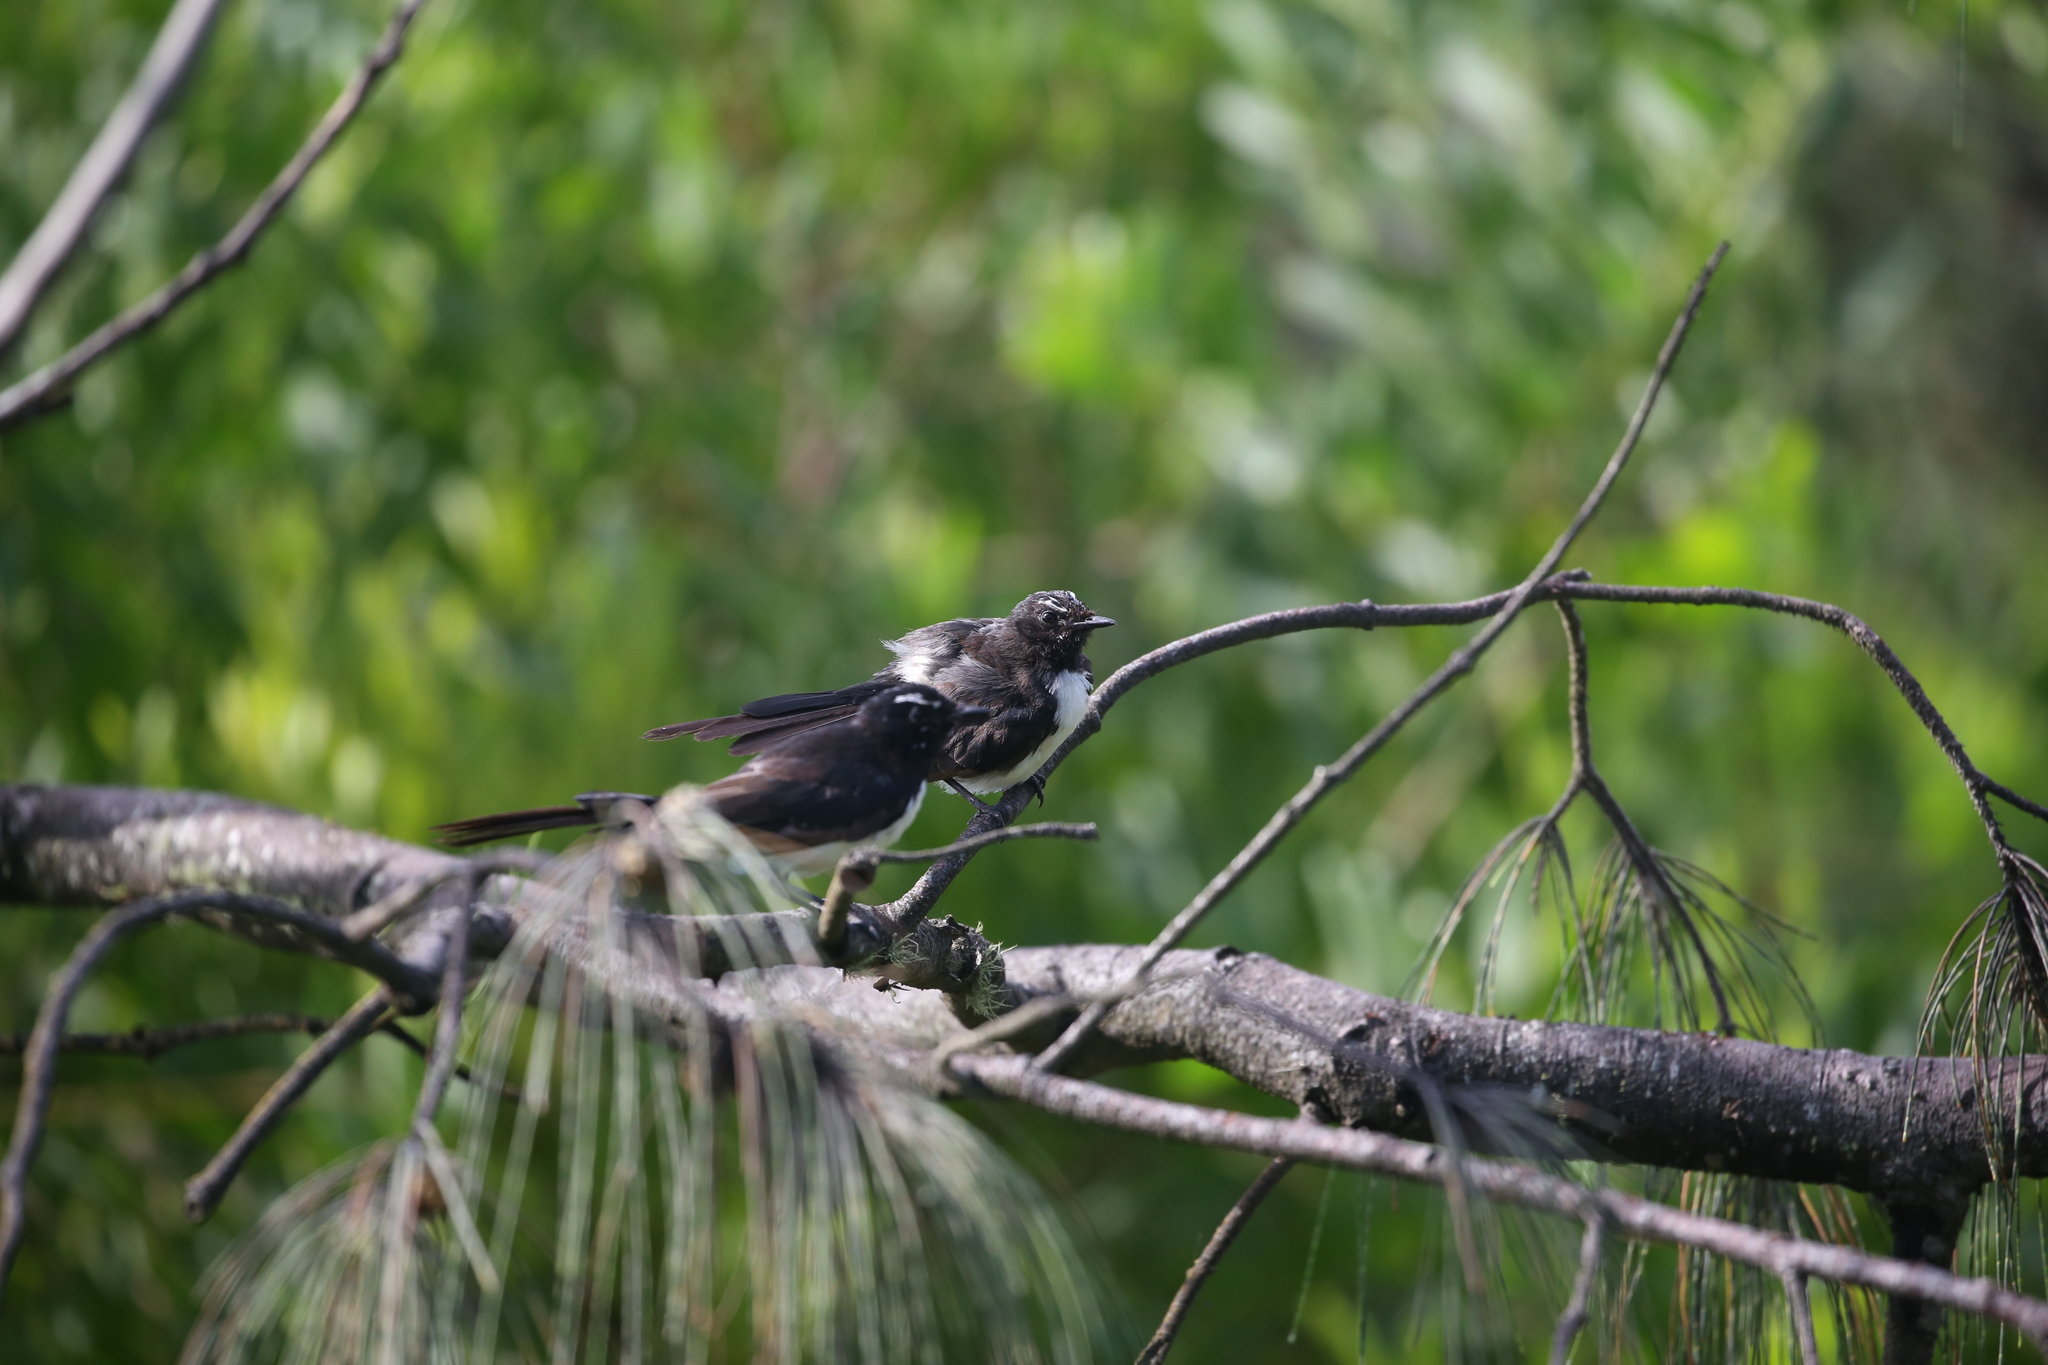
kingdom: Animalia
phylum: Chordata
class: Aves
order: Passeriformes
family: Rhipiduridae
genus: Rhipidura
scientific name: Rhipidura leucophrys
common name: Willie wagtail
